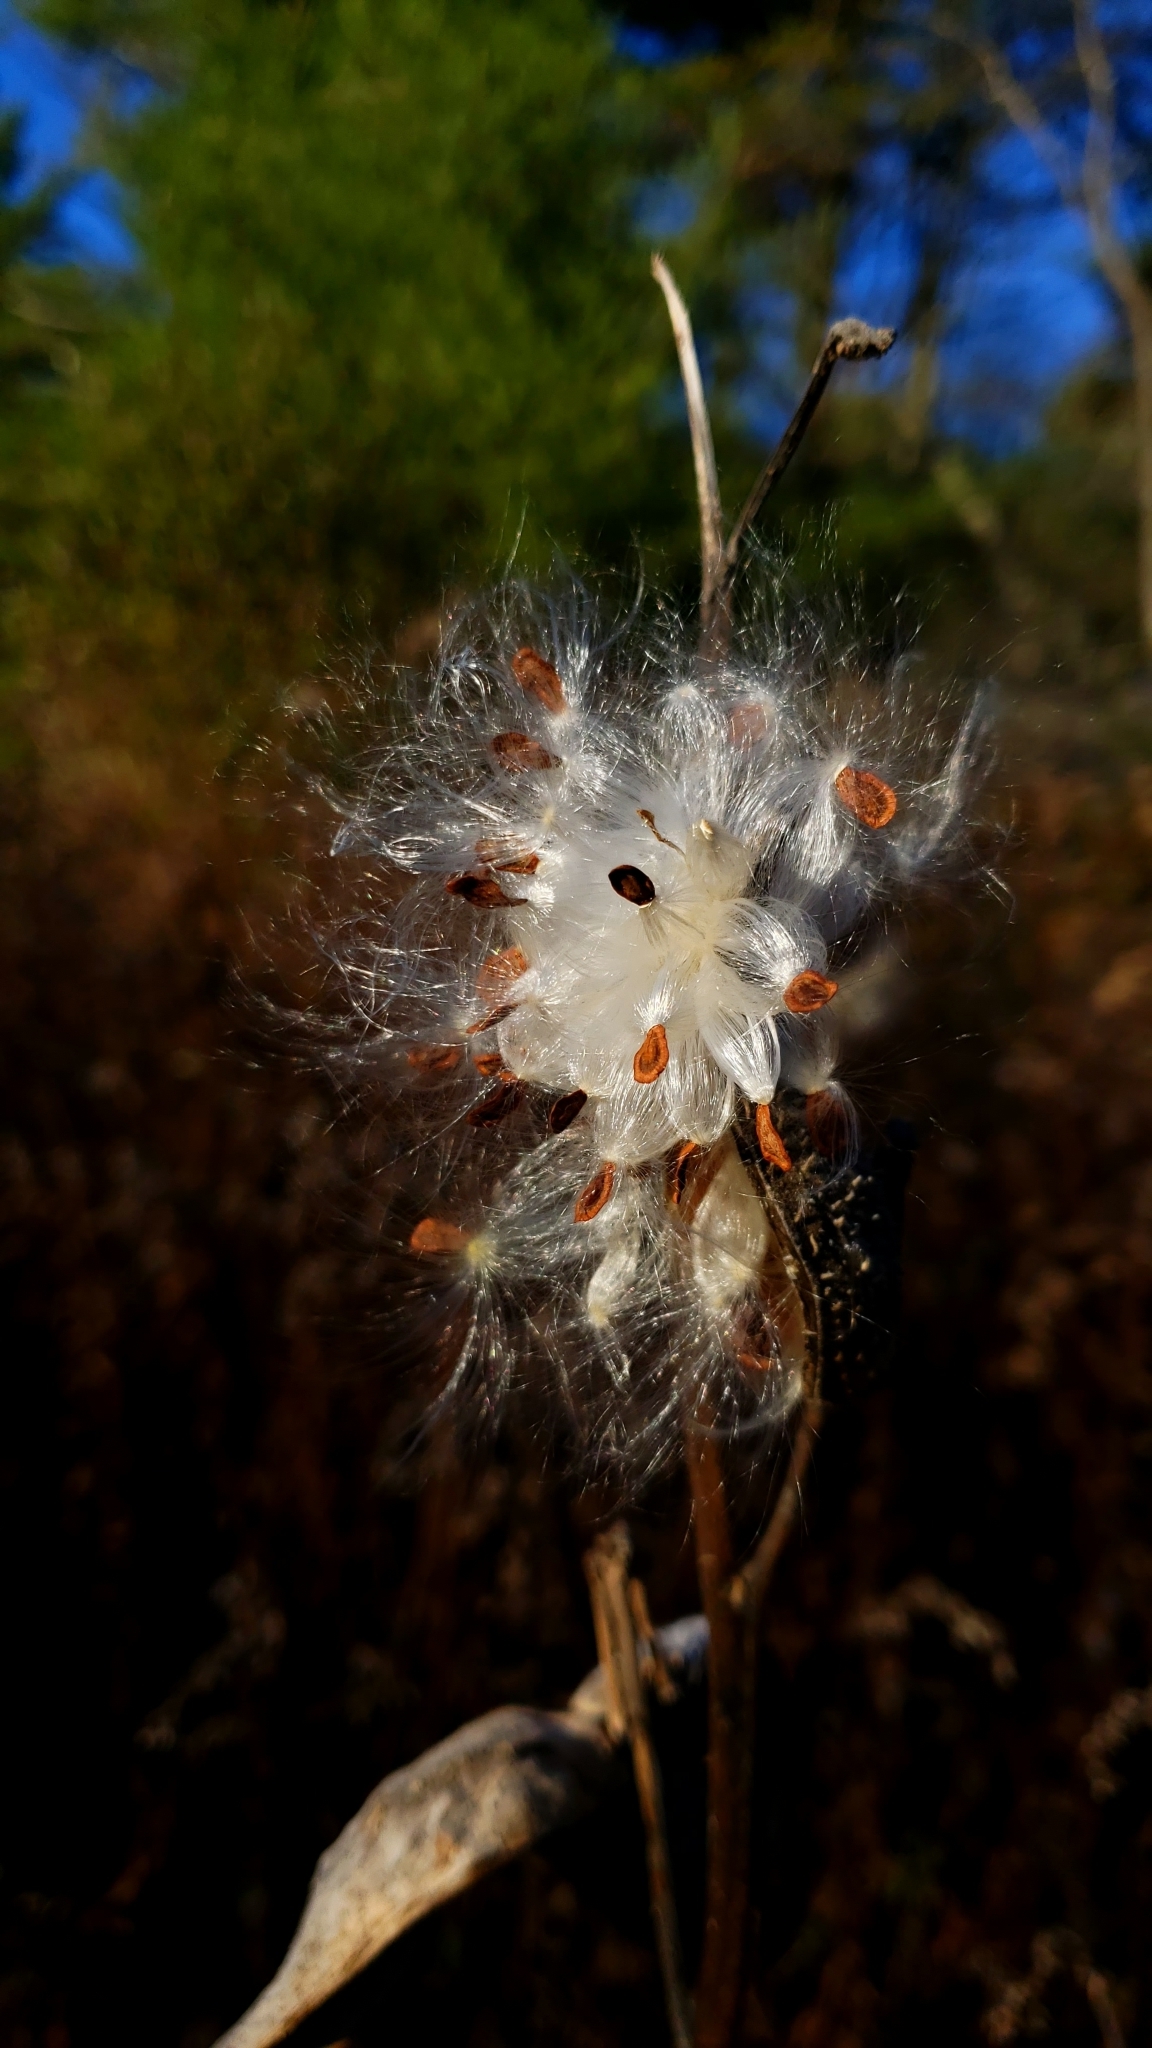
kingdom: Plantae
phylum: Tracheophyta
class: Magnoliopsida
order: Gentianales
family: Apocynaceae
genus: Asclepias
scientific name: Asclepias syriaca
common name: Common milkweed
